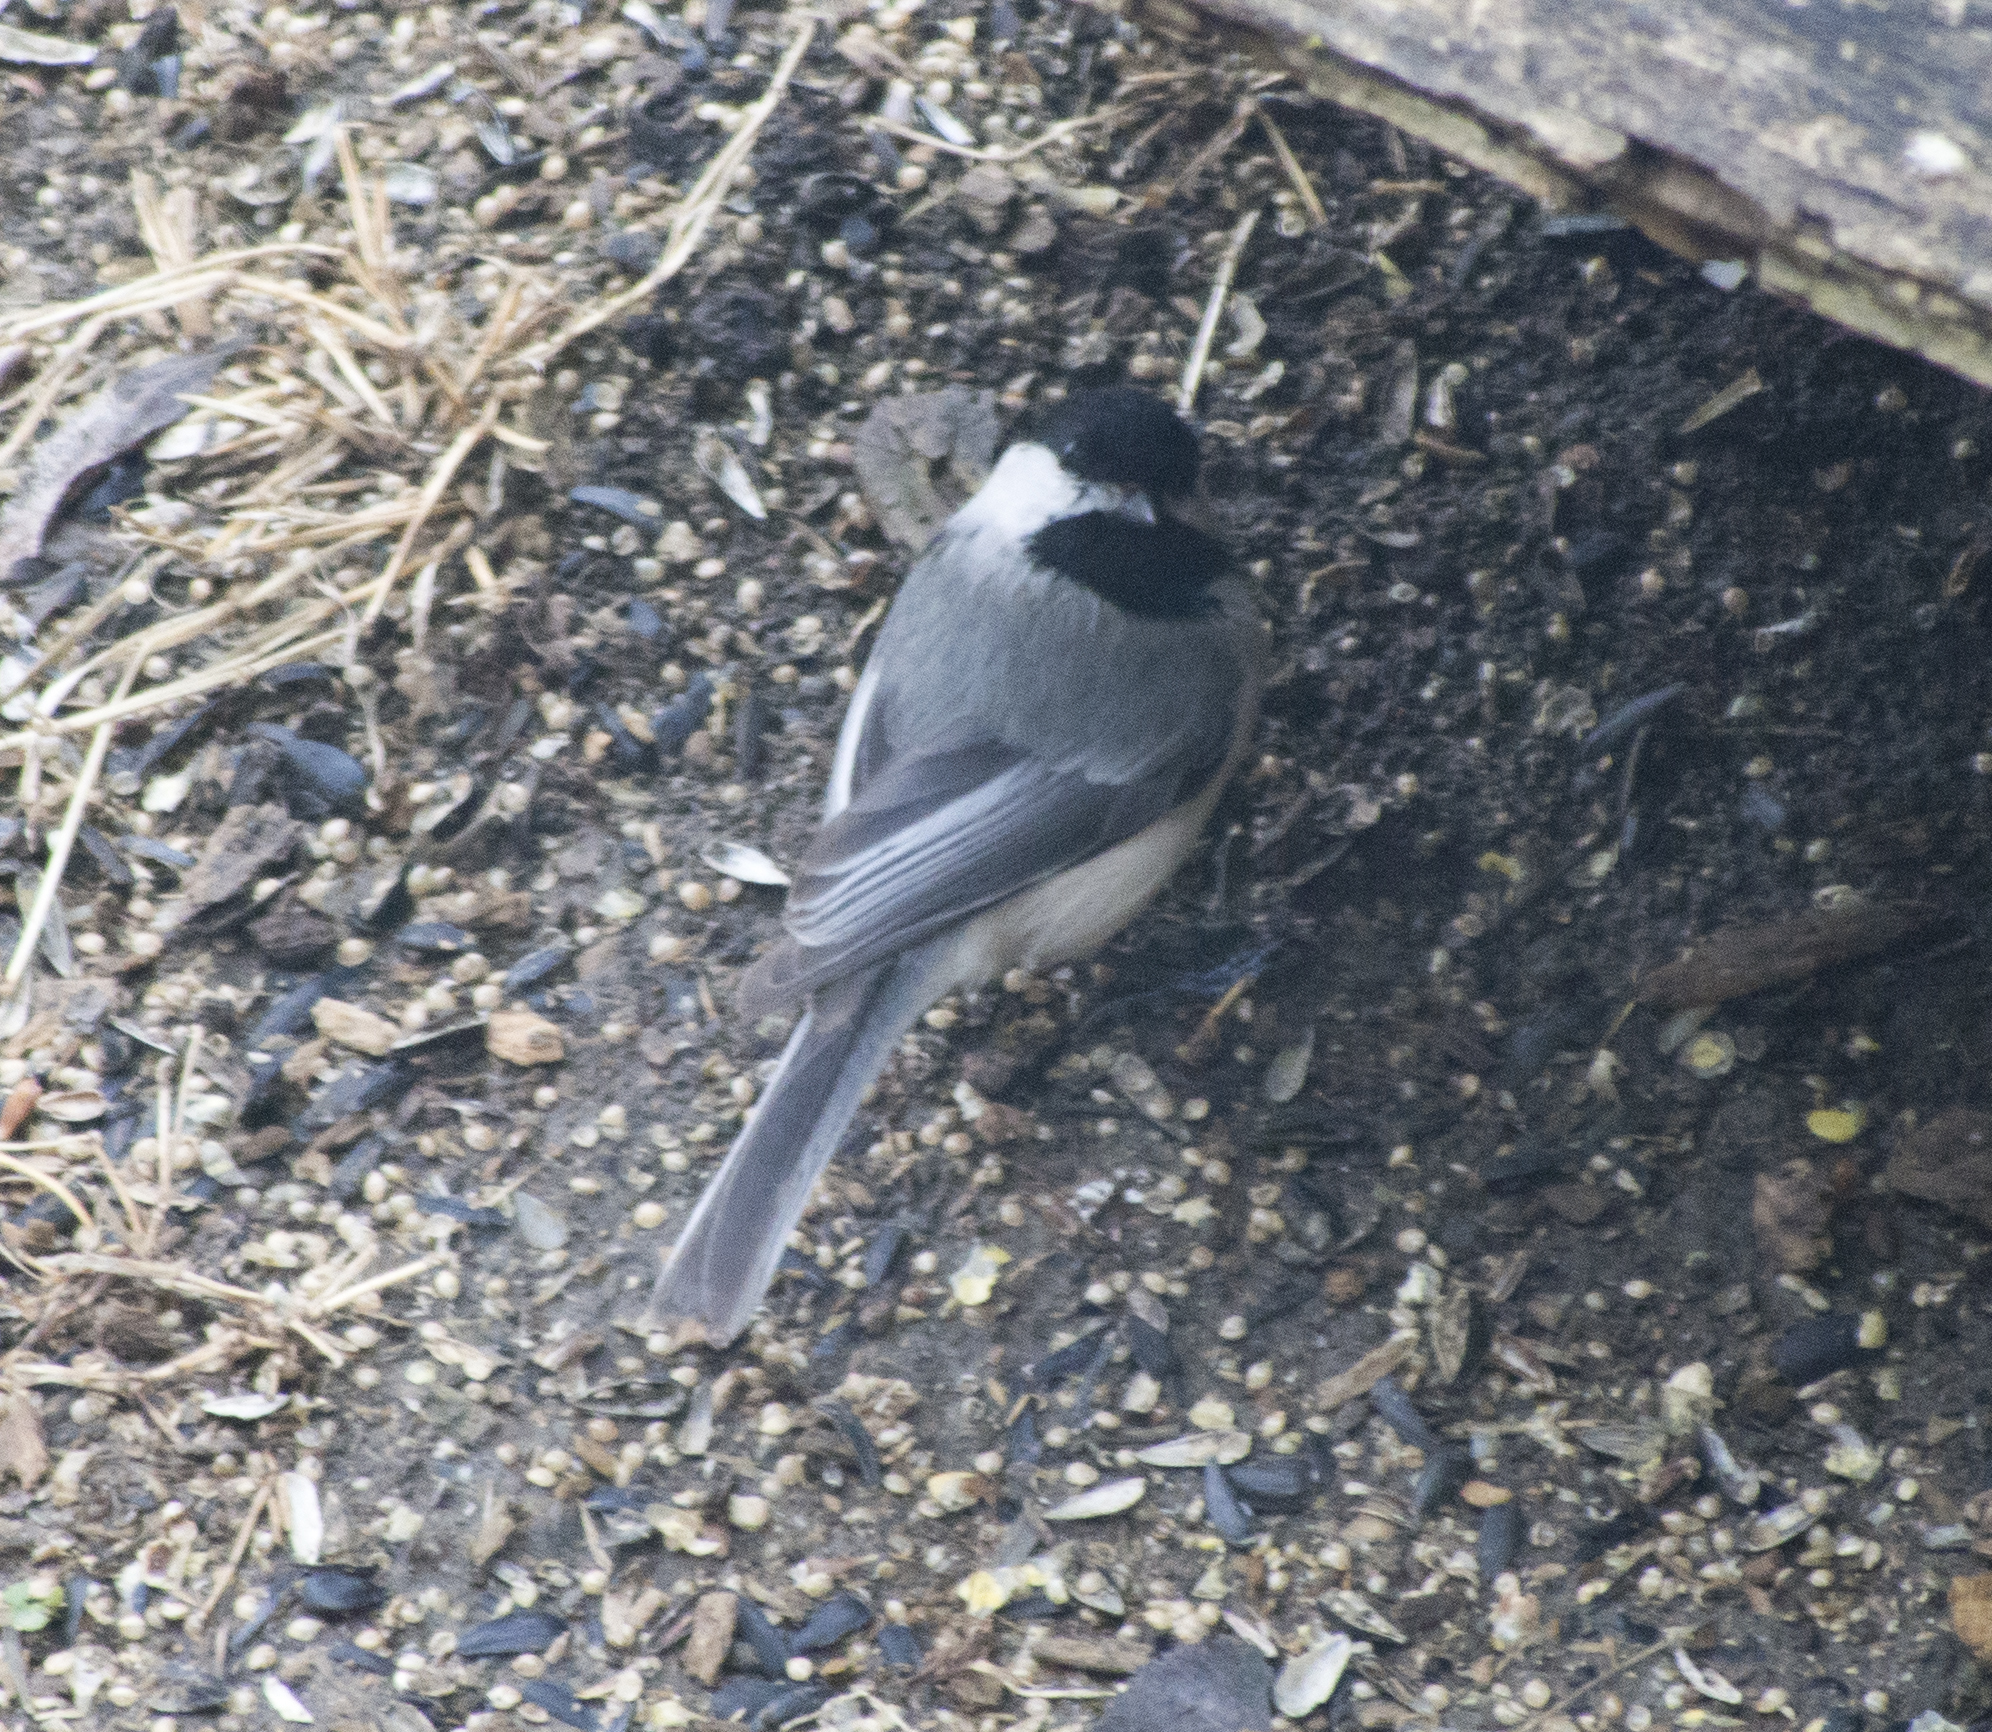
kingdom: Animalia
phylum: Chordata
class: Aves
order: Passeriformes
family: Paridae
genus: Poecile
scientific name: Poecile atricapillus
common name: Black-capped chickadee
